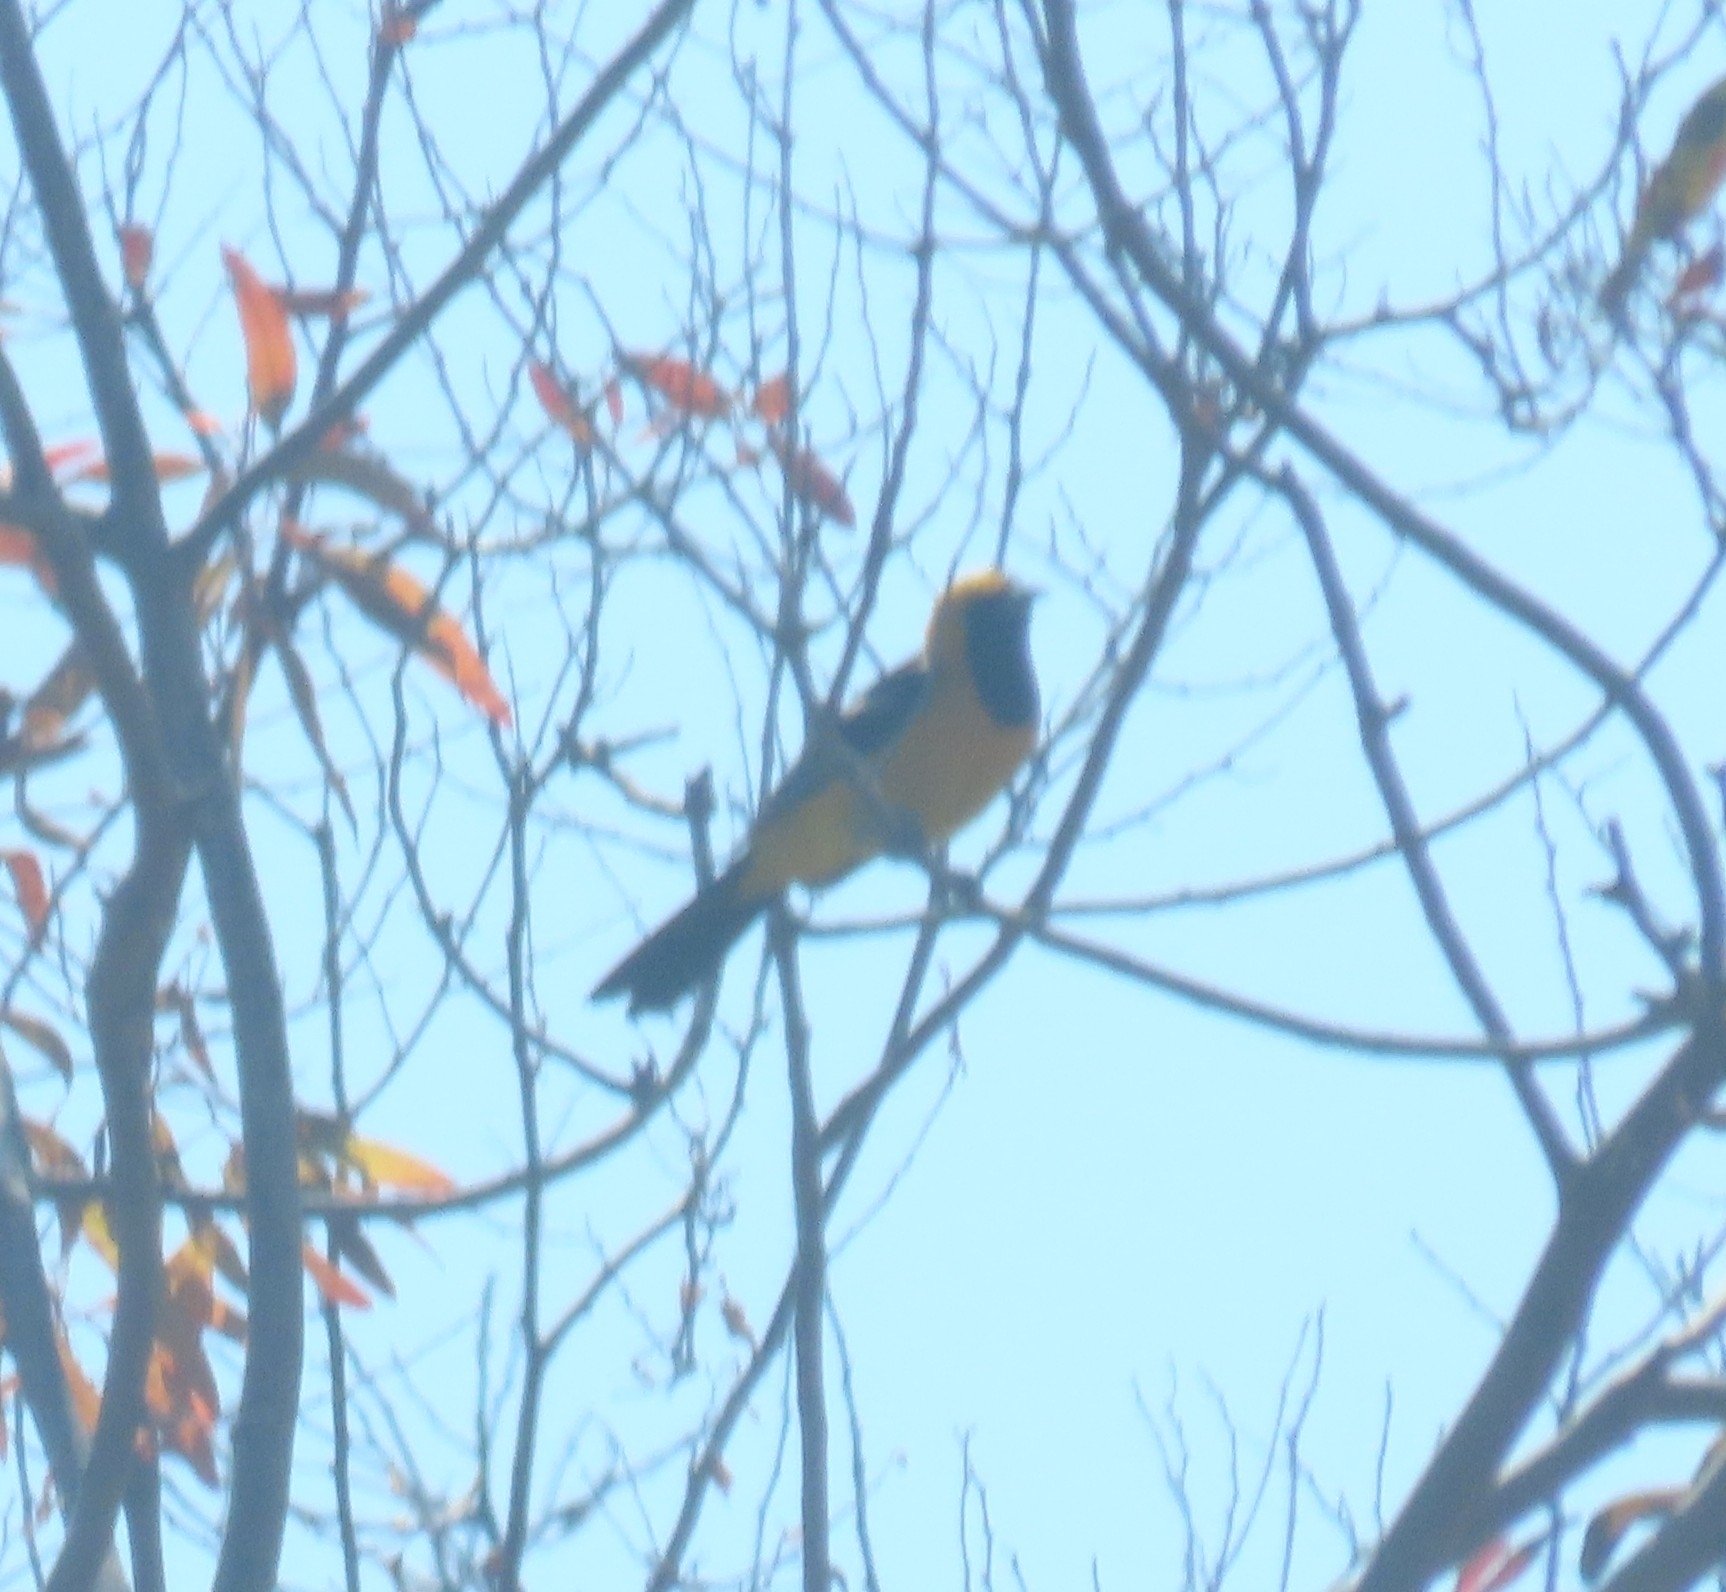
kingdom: Animalia
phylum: Chordata
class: Aves
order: Passeriformes
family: Icteridae
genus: Icterus
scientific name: Icterus cucullatus
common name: Hooded oriole
